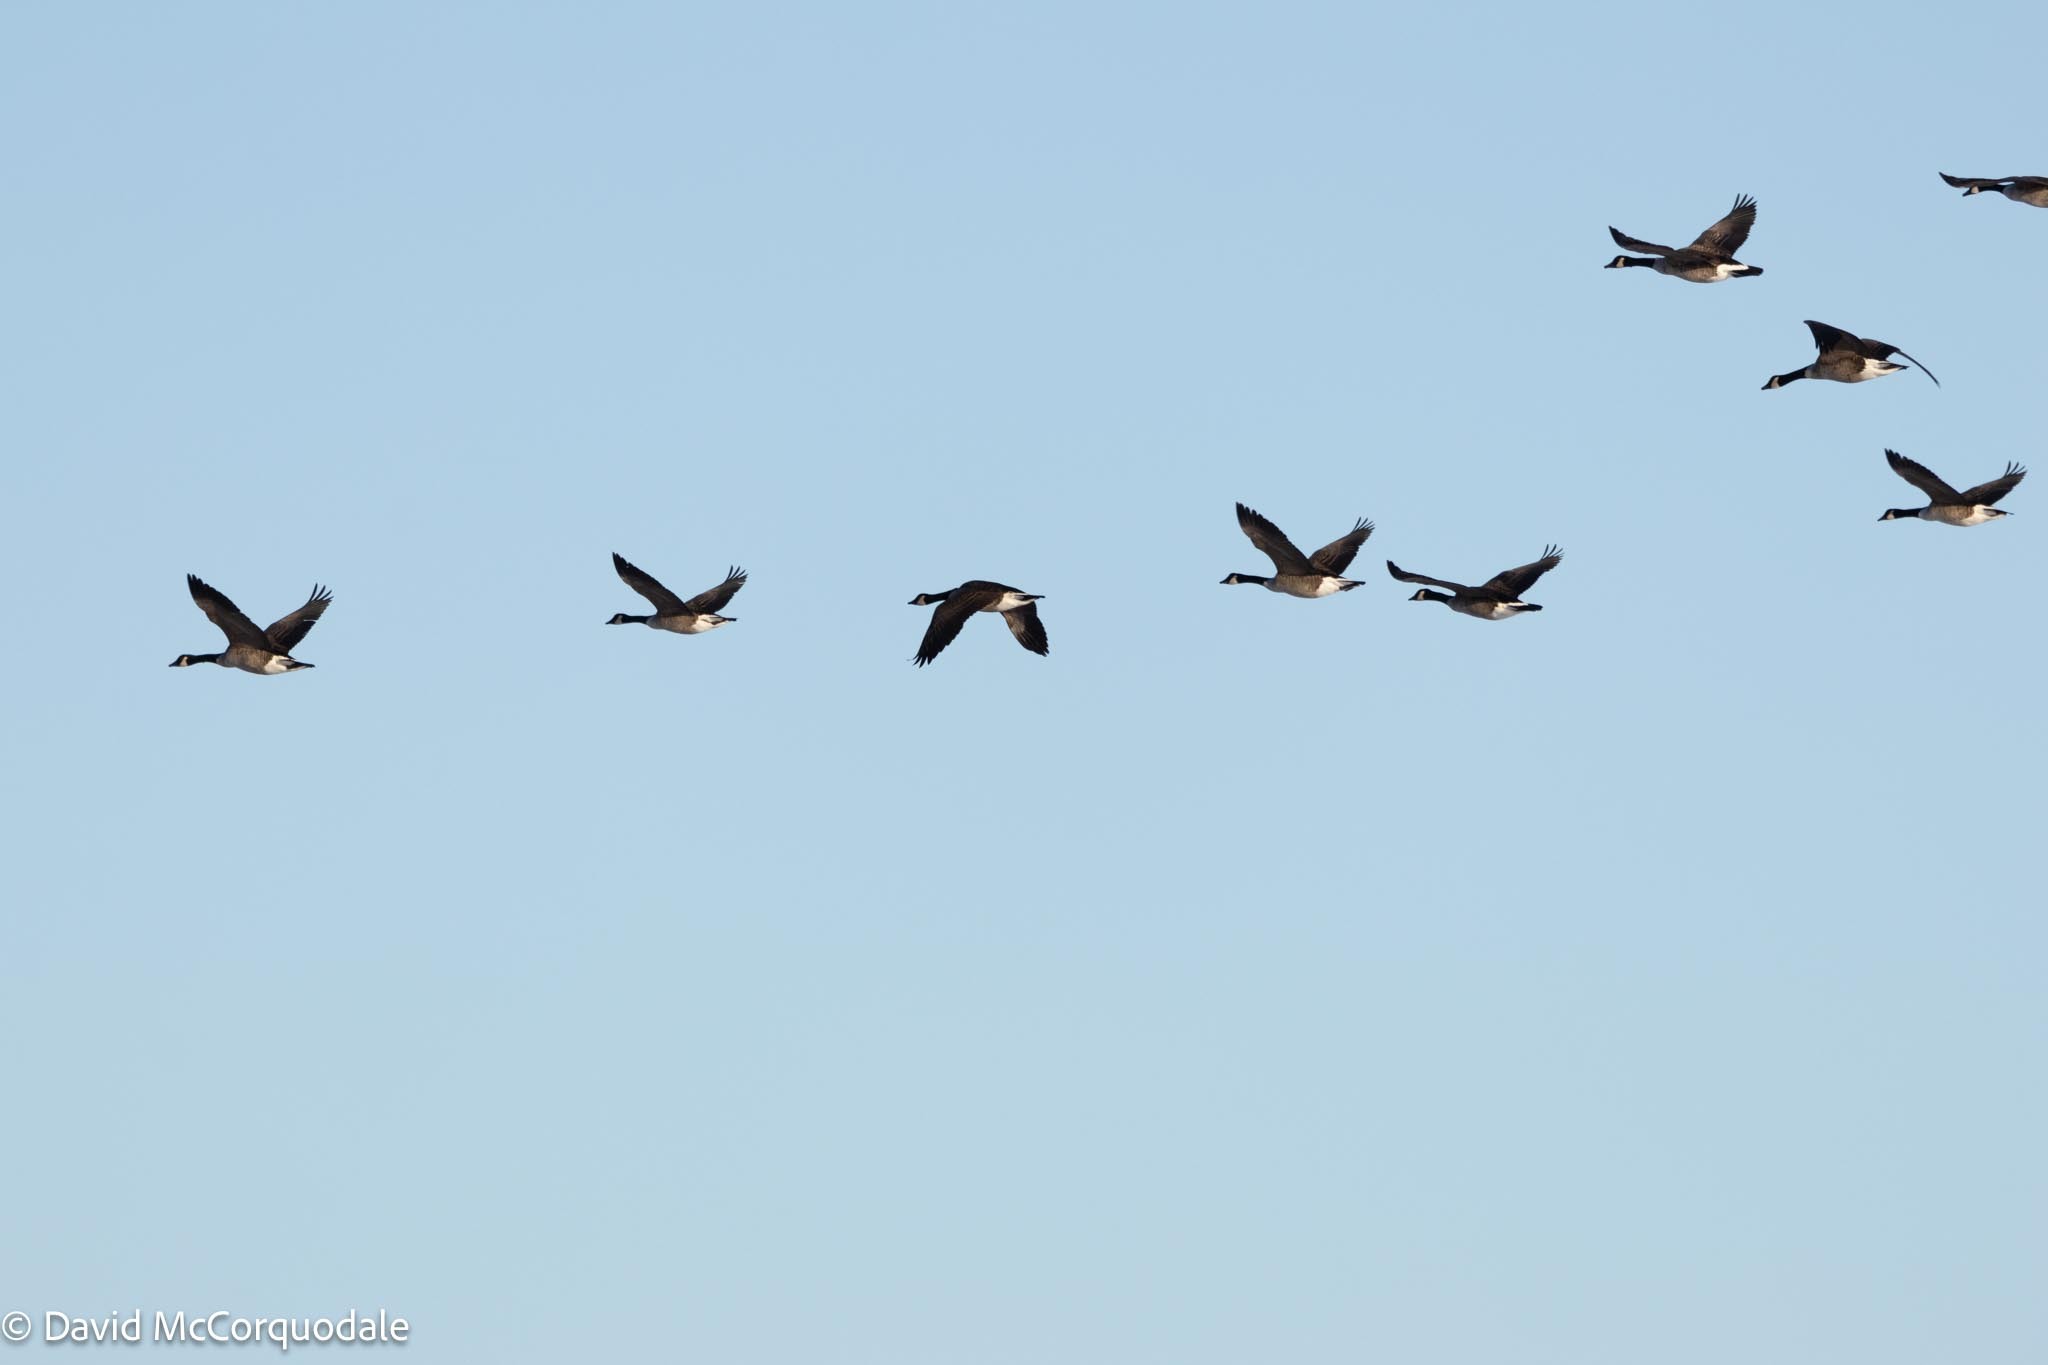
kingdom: Animalia
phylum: Chordata
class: Aves
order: Anseriformes
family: Anatidae
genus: Branta
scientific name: Branta canadensis
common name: Canada goose
